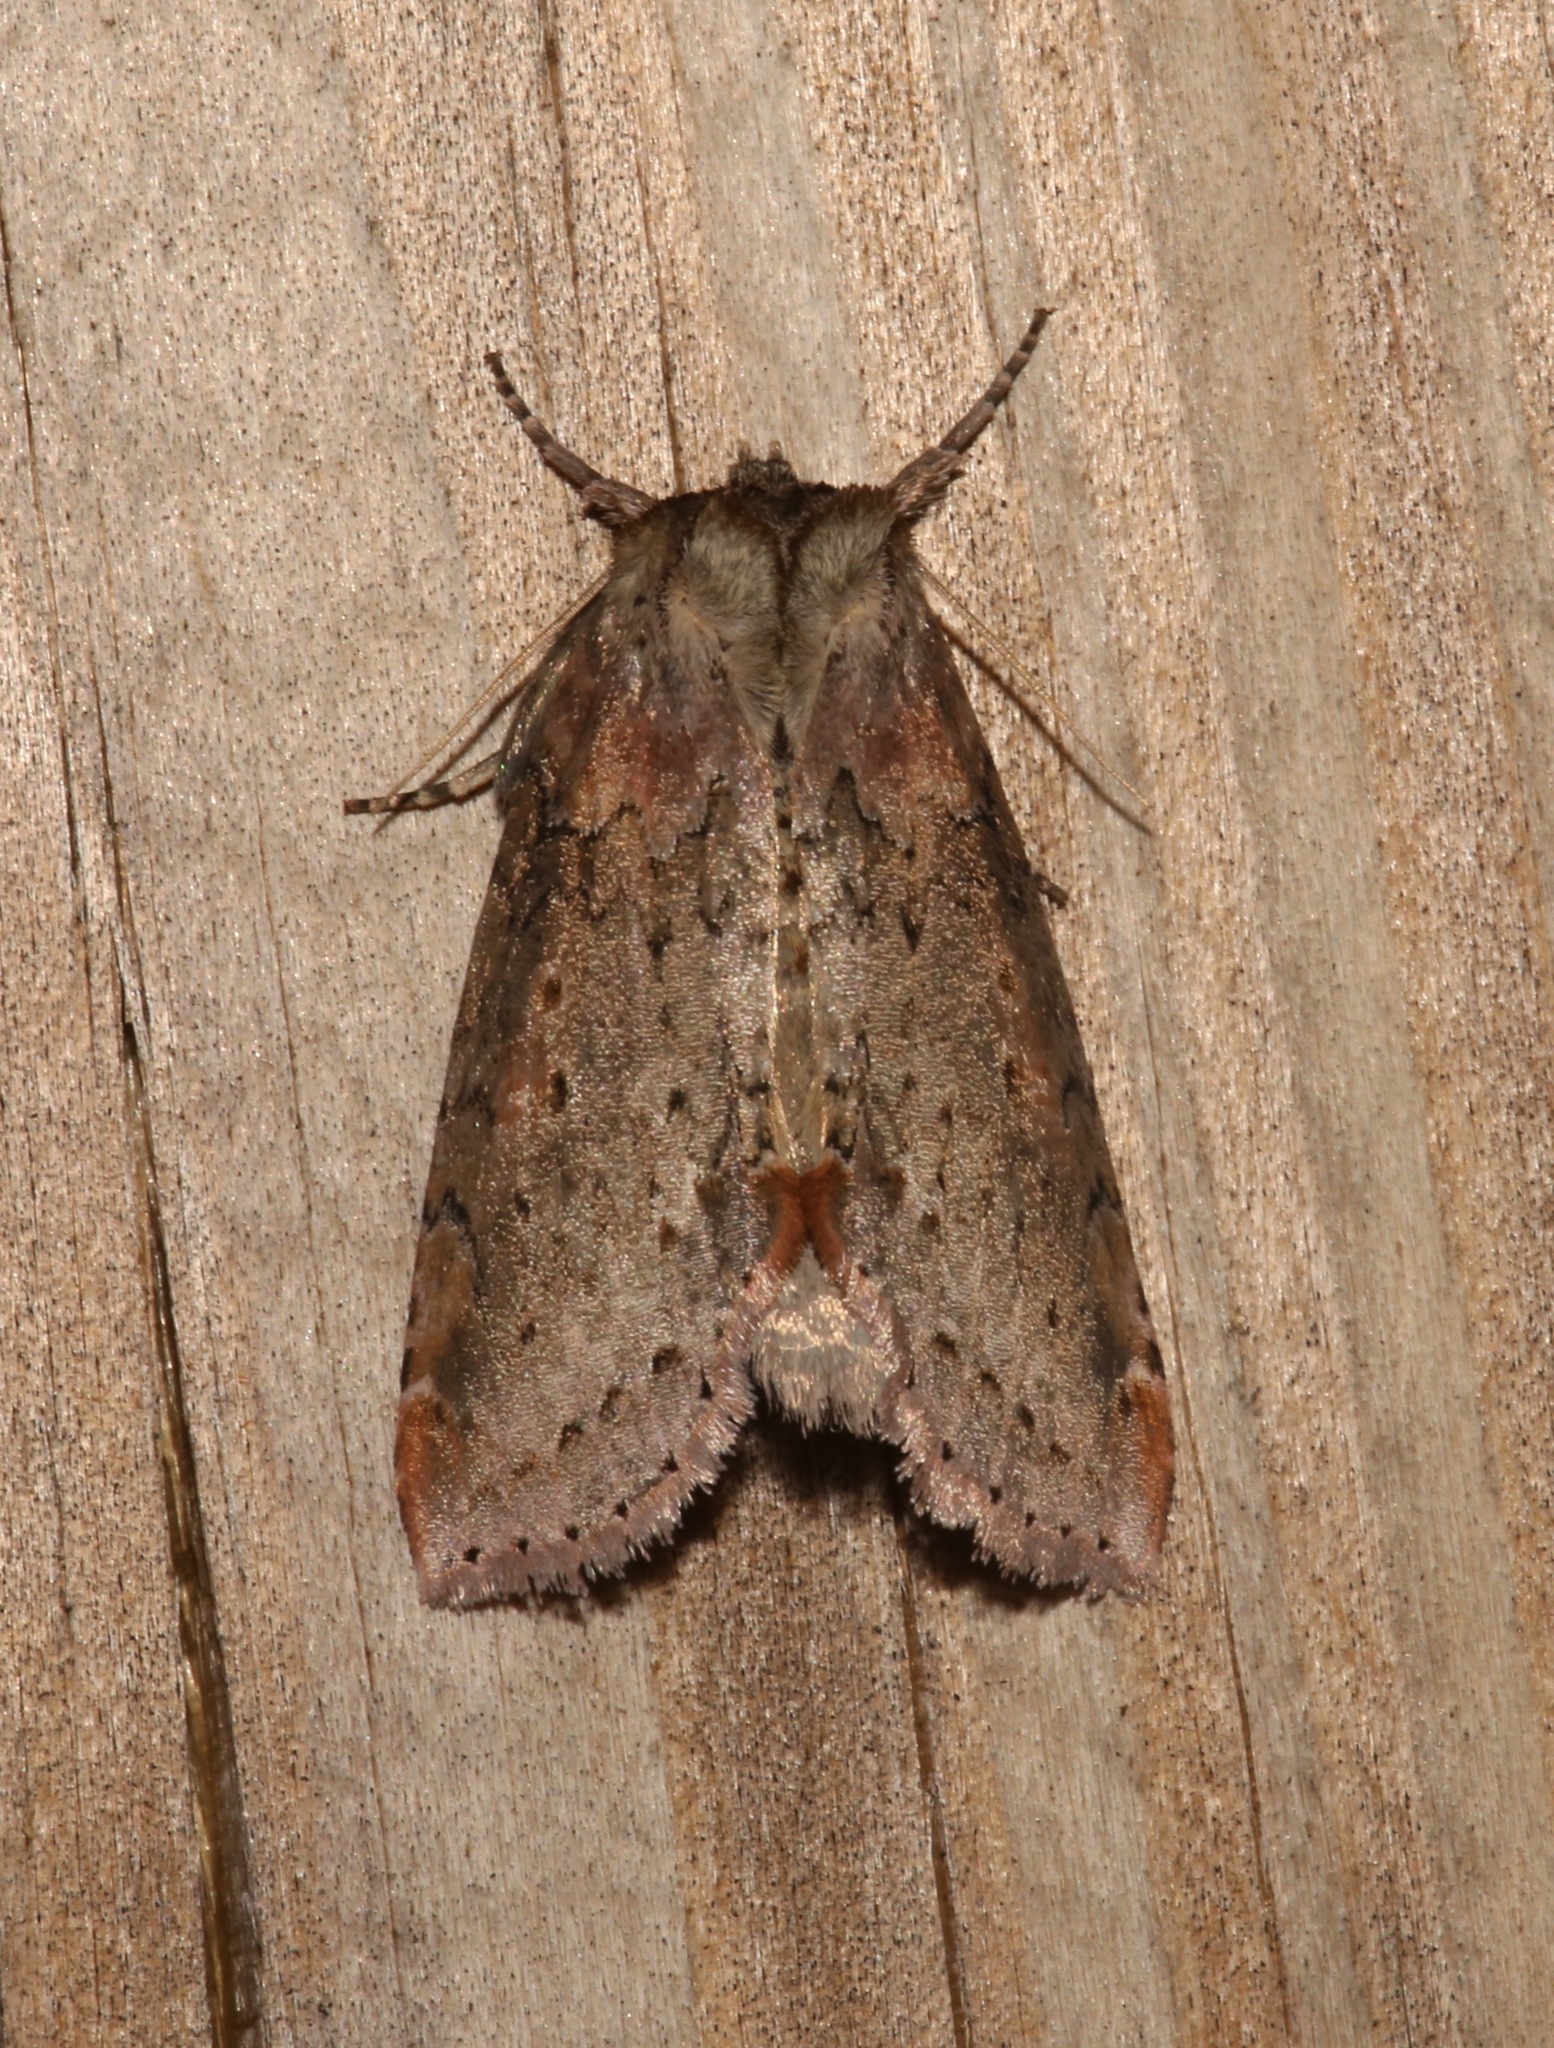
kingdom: Animalia
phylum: Arthropoda
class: Insecta
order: Lepidoptera
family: Drepanidae
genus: Pseudothyatira
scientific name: Pseudothyatira cymatophoroides
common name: Tufted thyatirid moth
